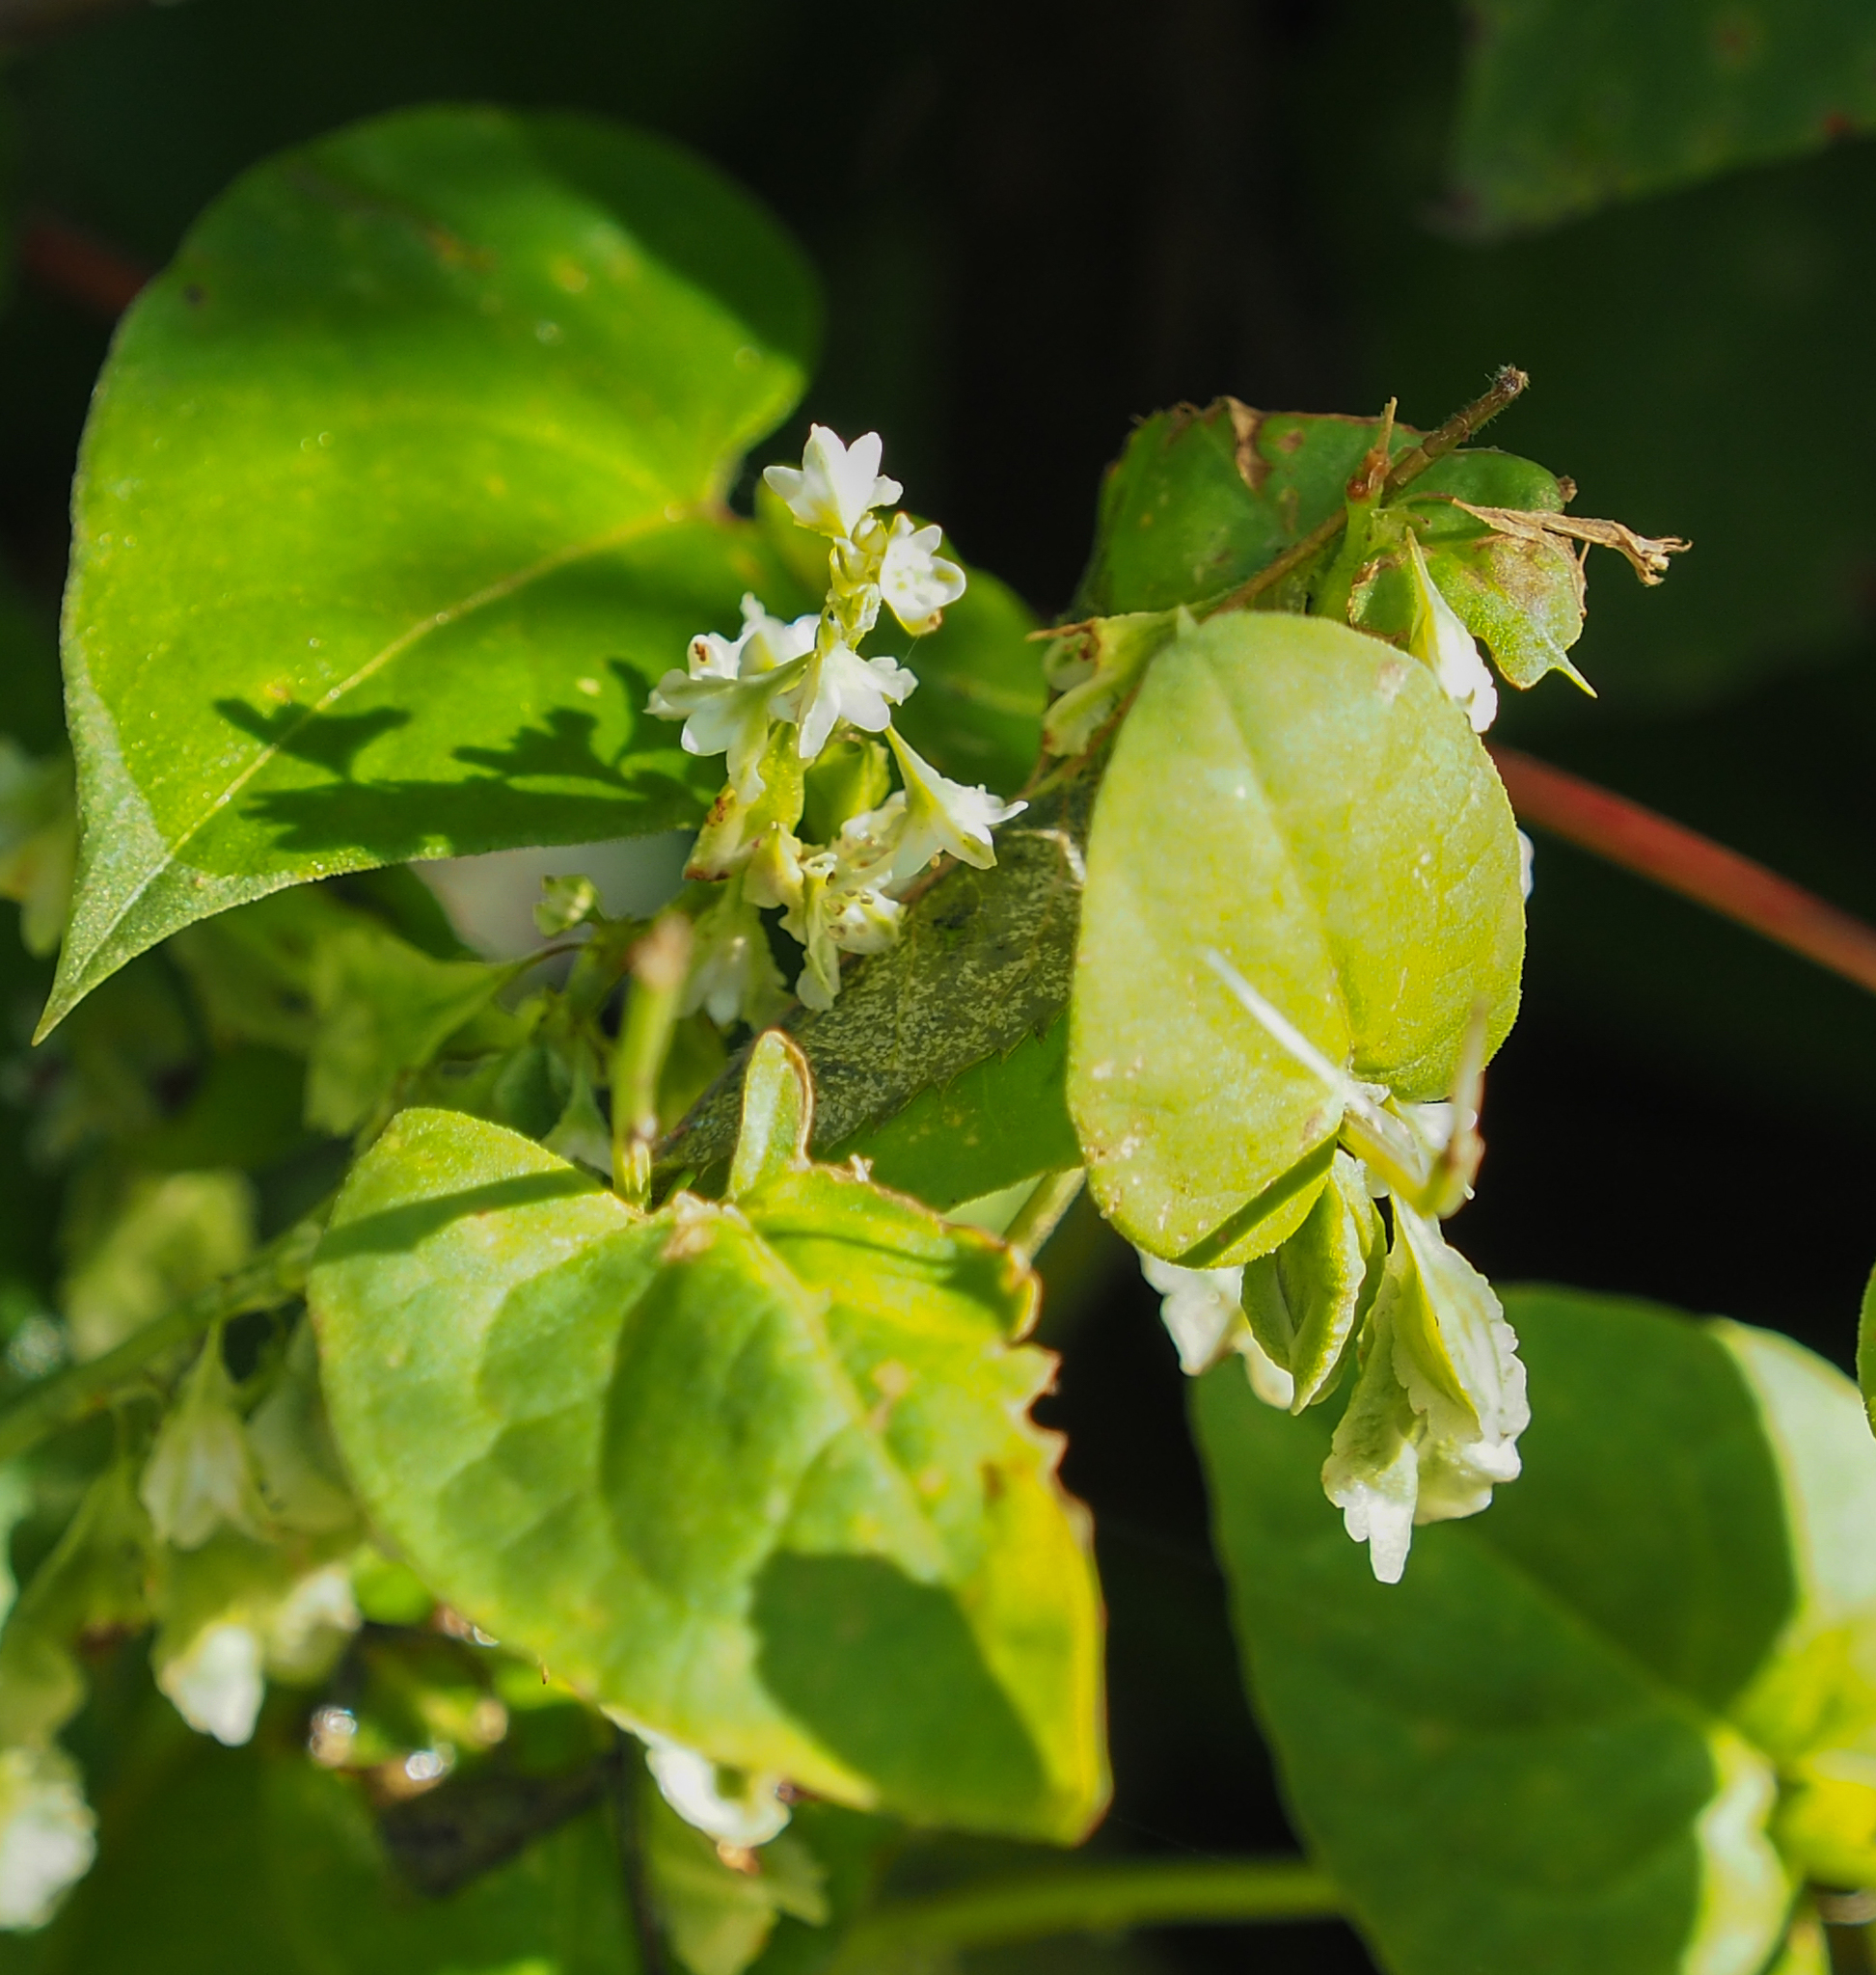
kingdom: Plantae
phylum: Tracheophyta
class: Magnoliopsida
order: Caryophyllales
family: Polygonaceae
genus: Fallopia
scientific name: Fallopia scandens
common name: Climbing false buckwheat
